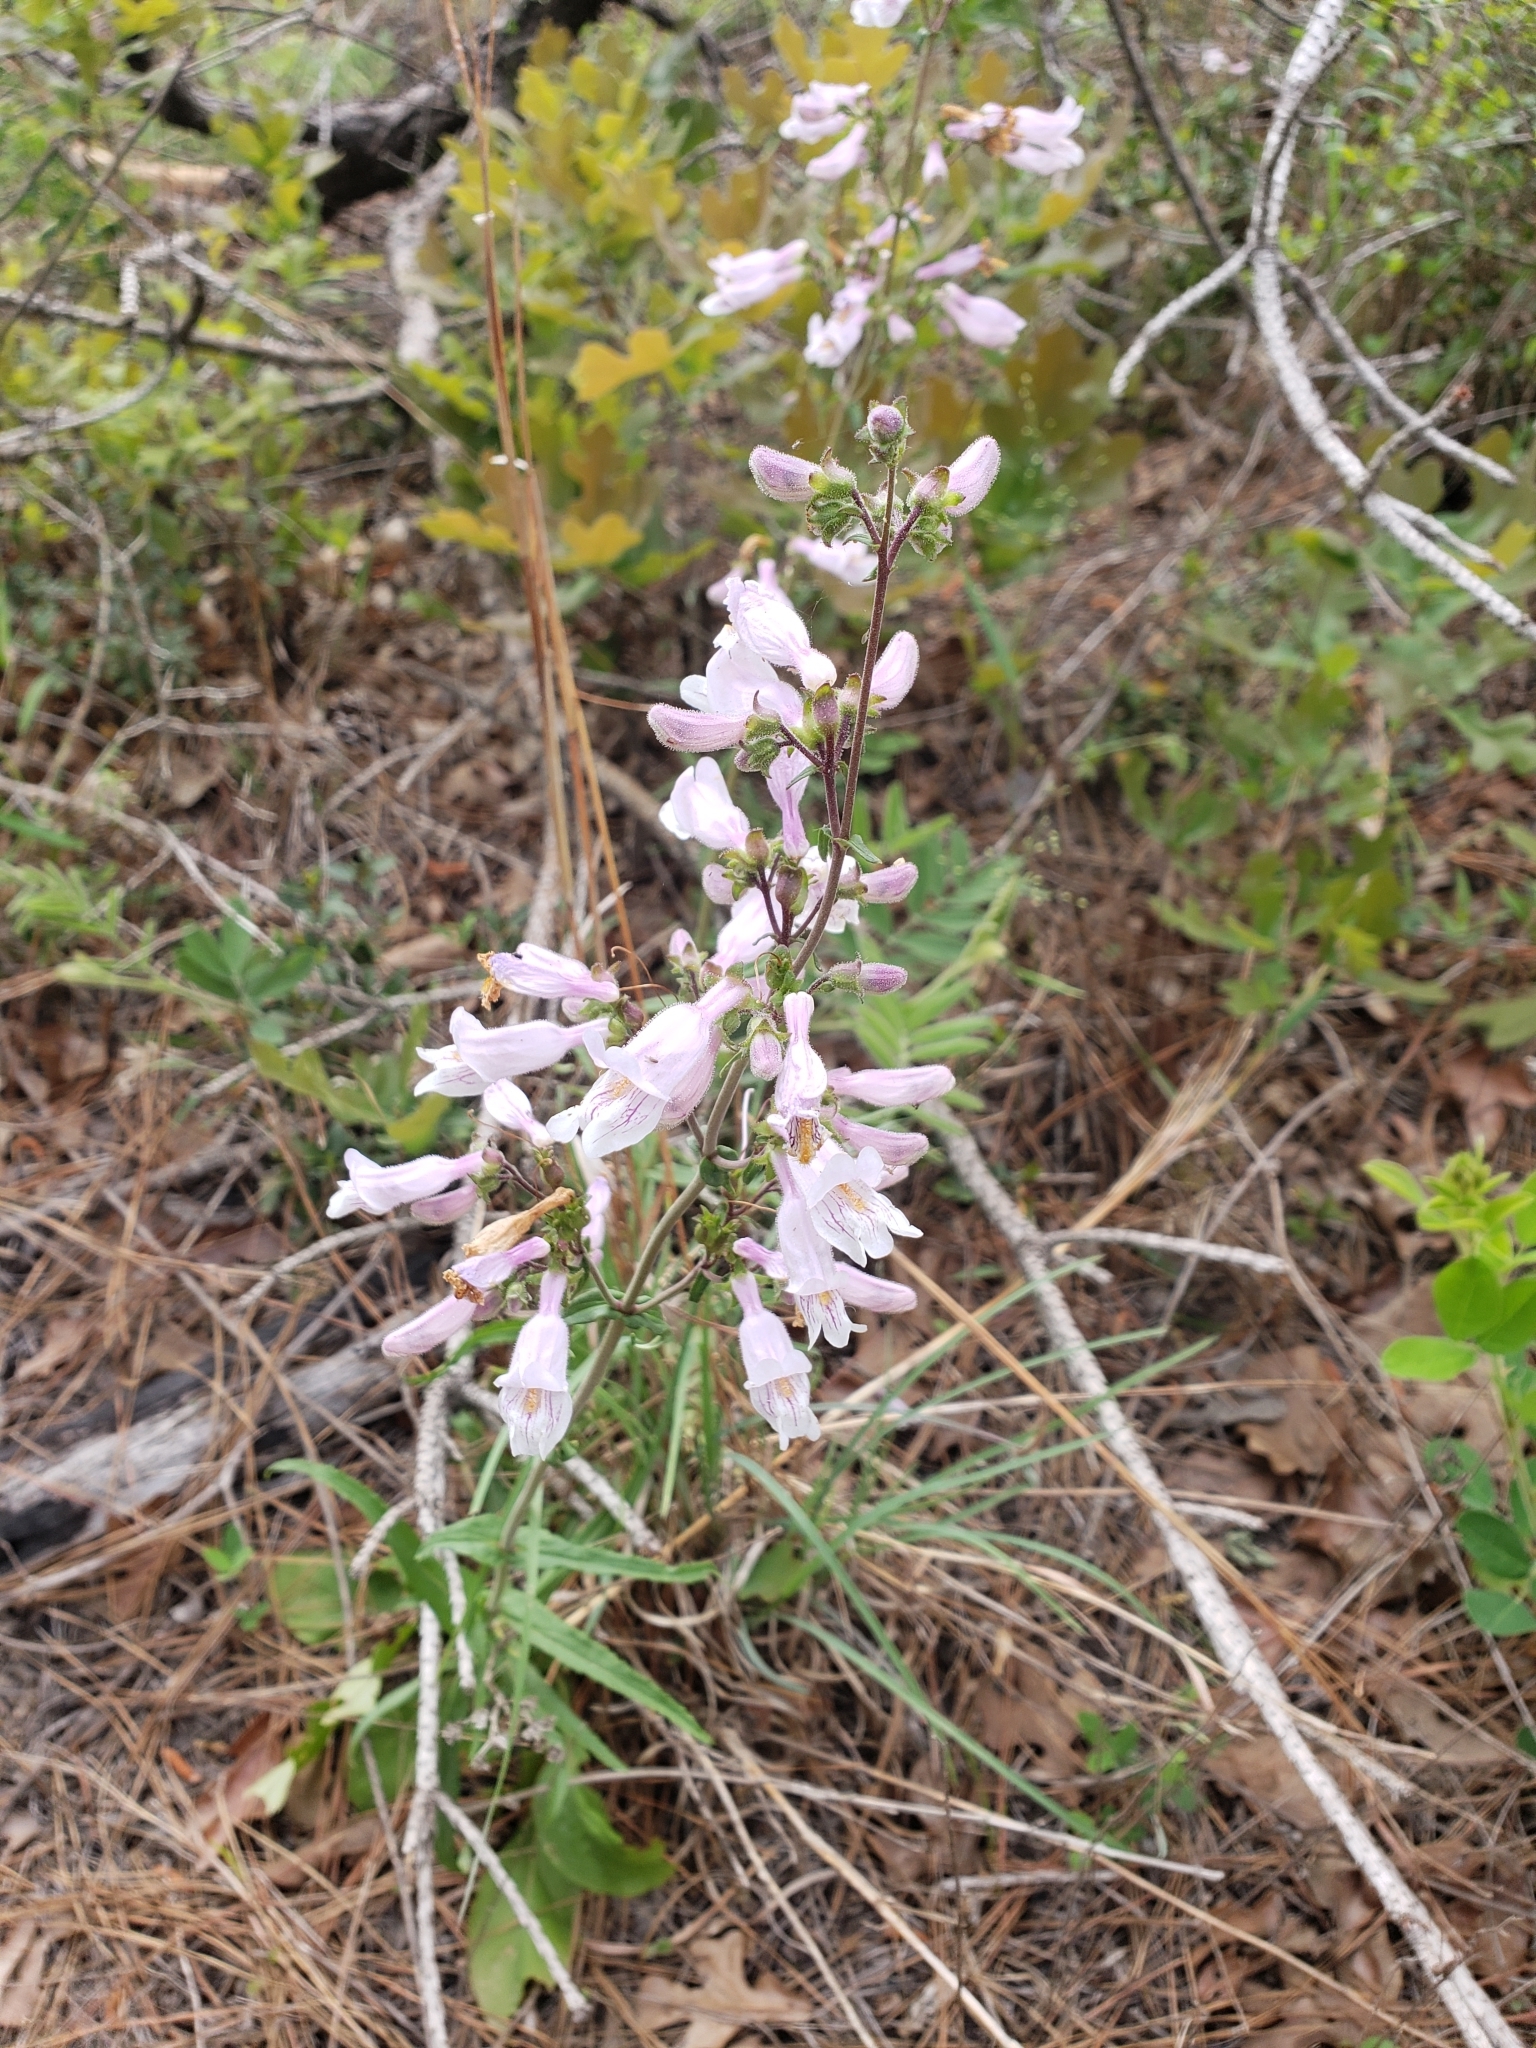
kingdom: Plantae
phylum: Tracheophyta
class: Magnoliopsida
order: Lamiales
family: Plantaginaceae
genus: Penstemon
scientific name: Penstemon laxiflorus
